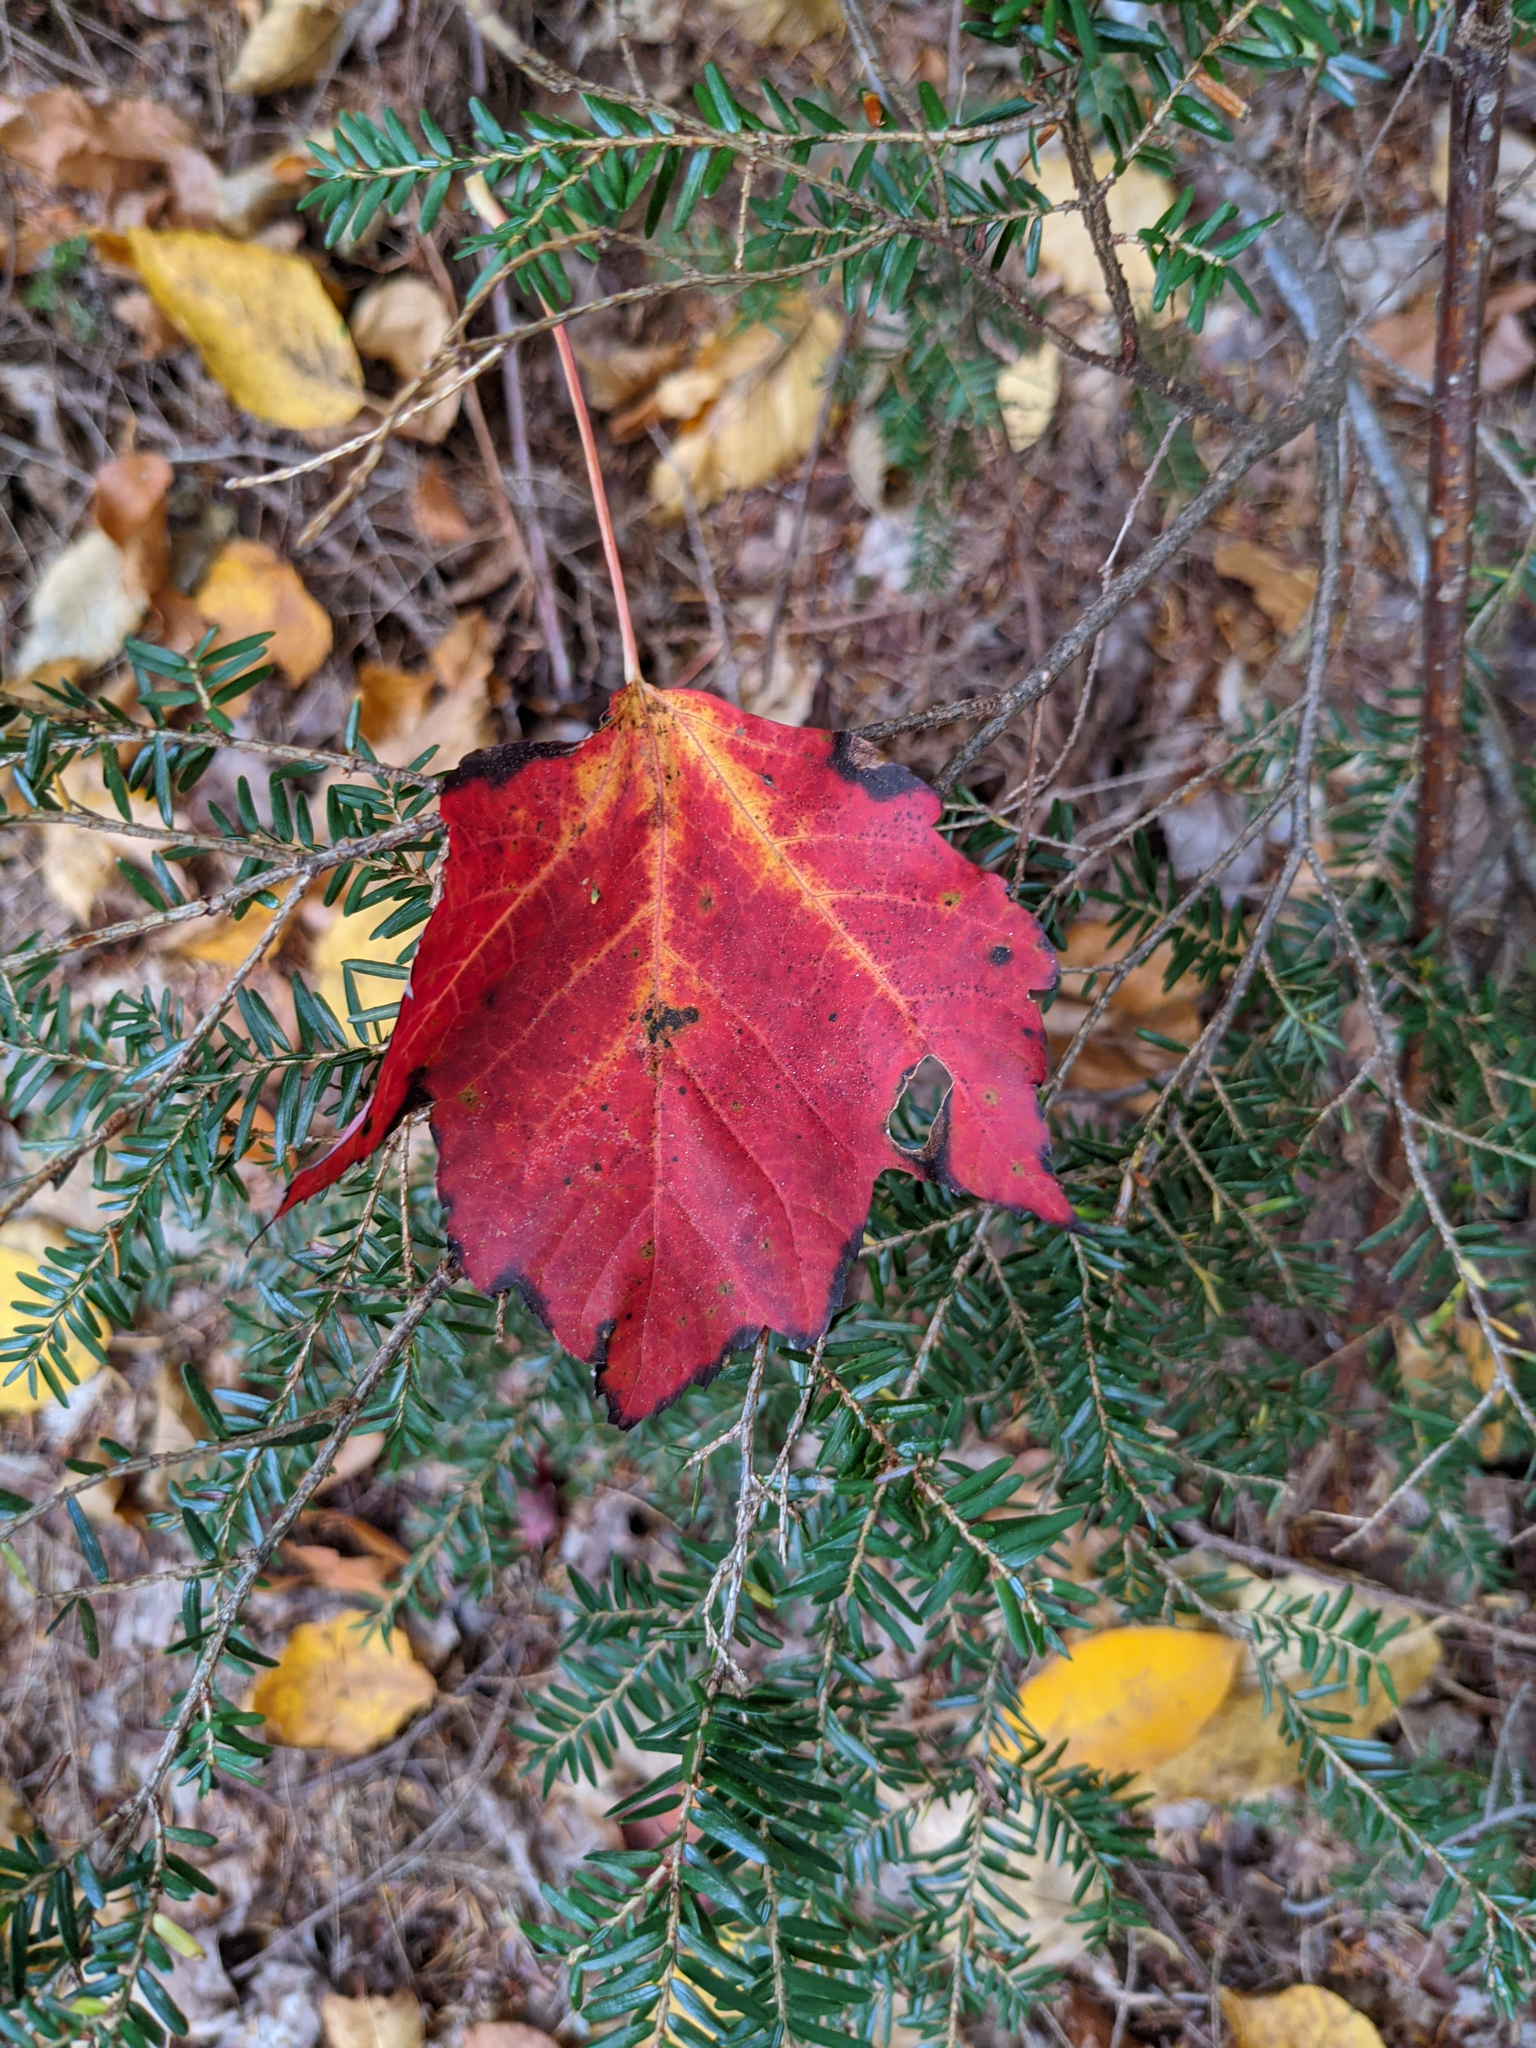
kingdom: Plantae
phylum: Tracheophyta
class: Magnoliopsida
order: Sapindales
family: Sapindaceae
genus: Acer
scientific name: Acer rubrum
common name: Red maple
